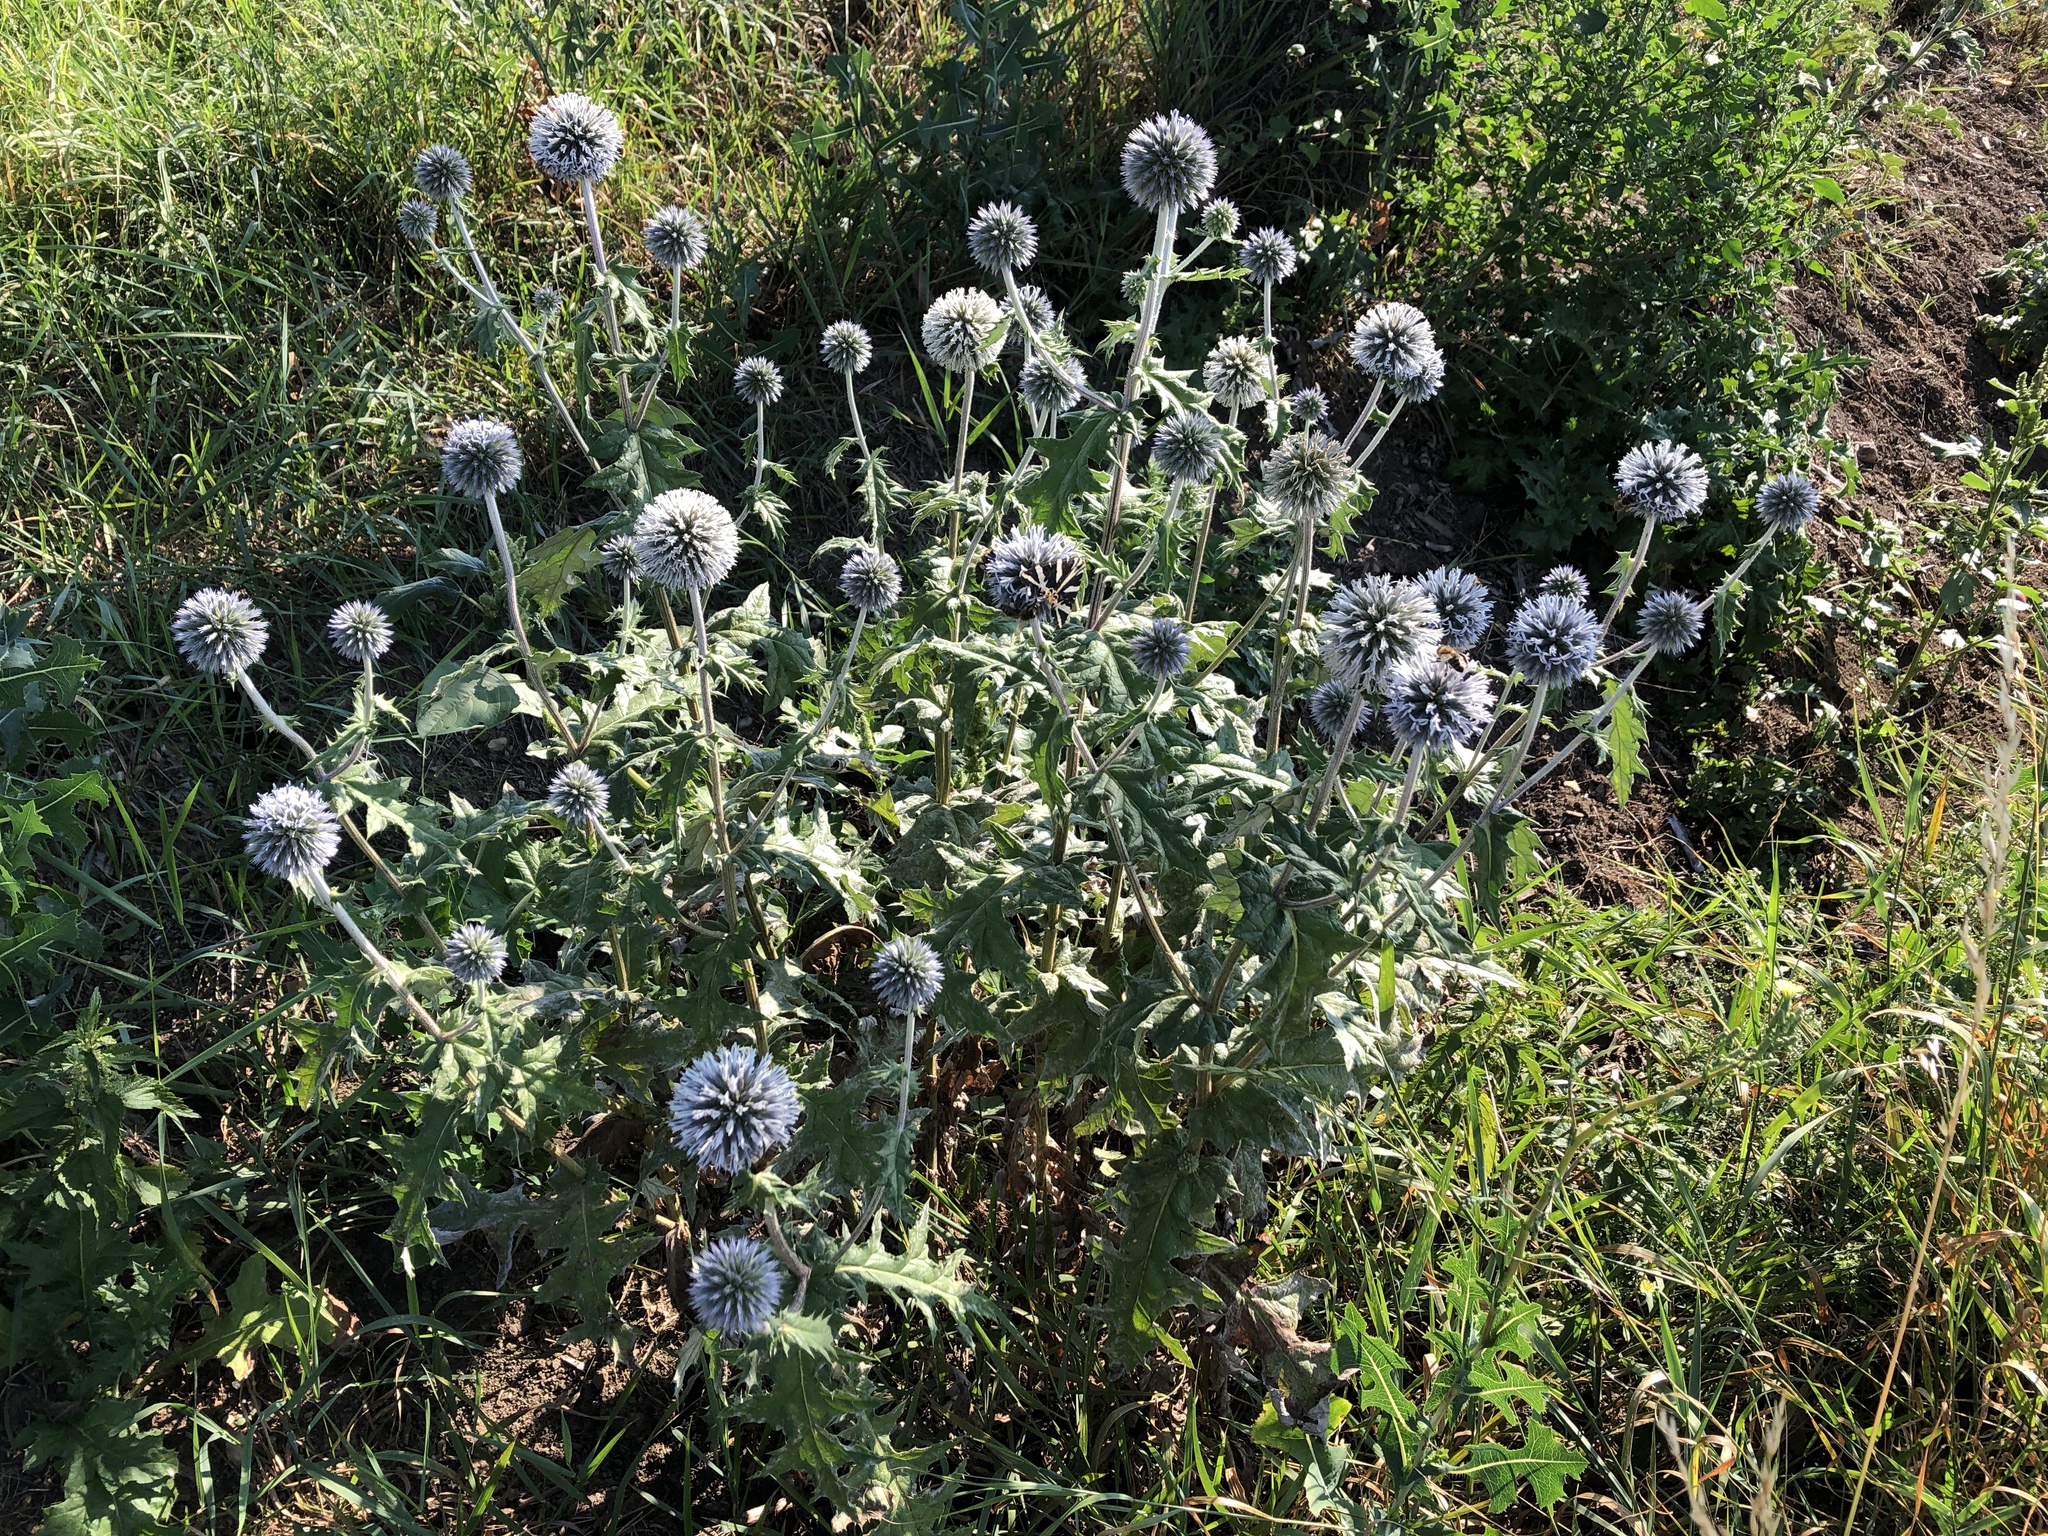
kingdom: Plantae
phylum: Tracheophyta
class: Magnoliopsida
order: Asterales
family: Asteraceae
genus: Echinops
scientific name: Echinops sphaerocephalus
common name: Glandular globe-thistle
